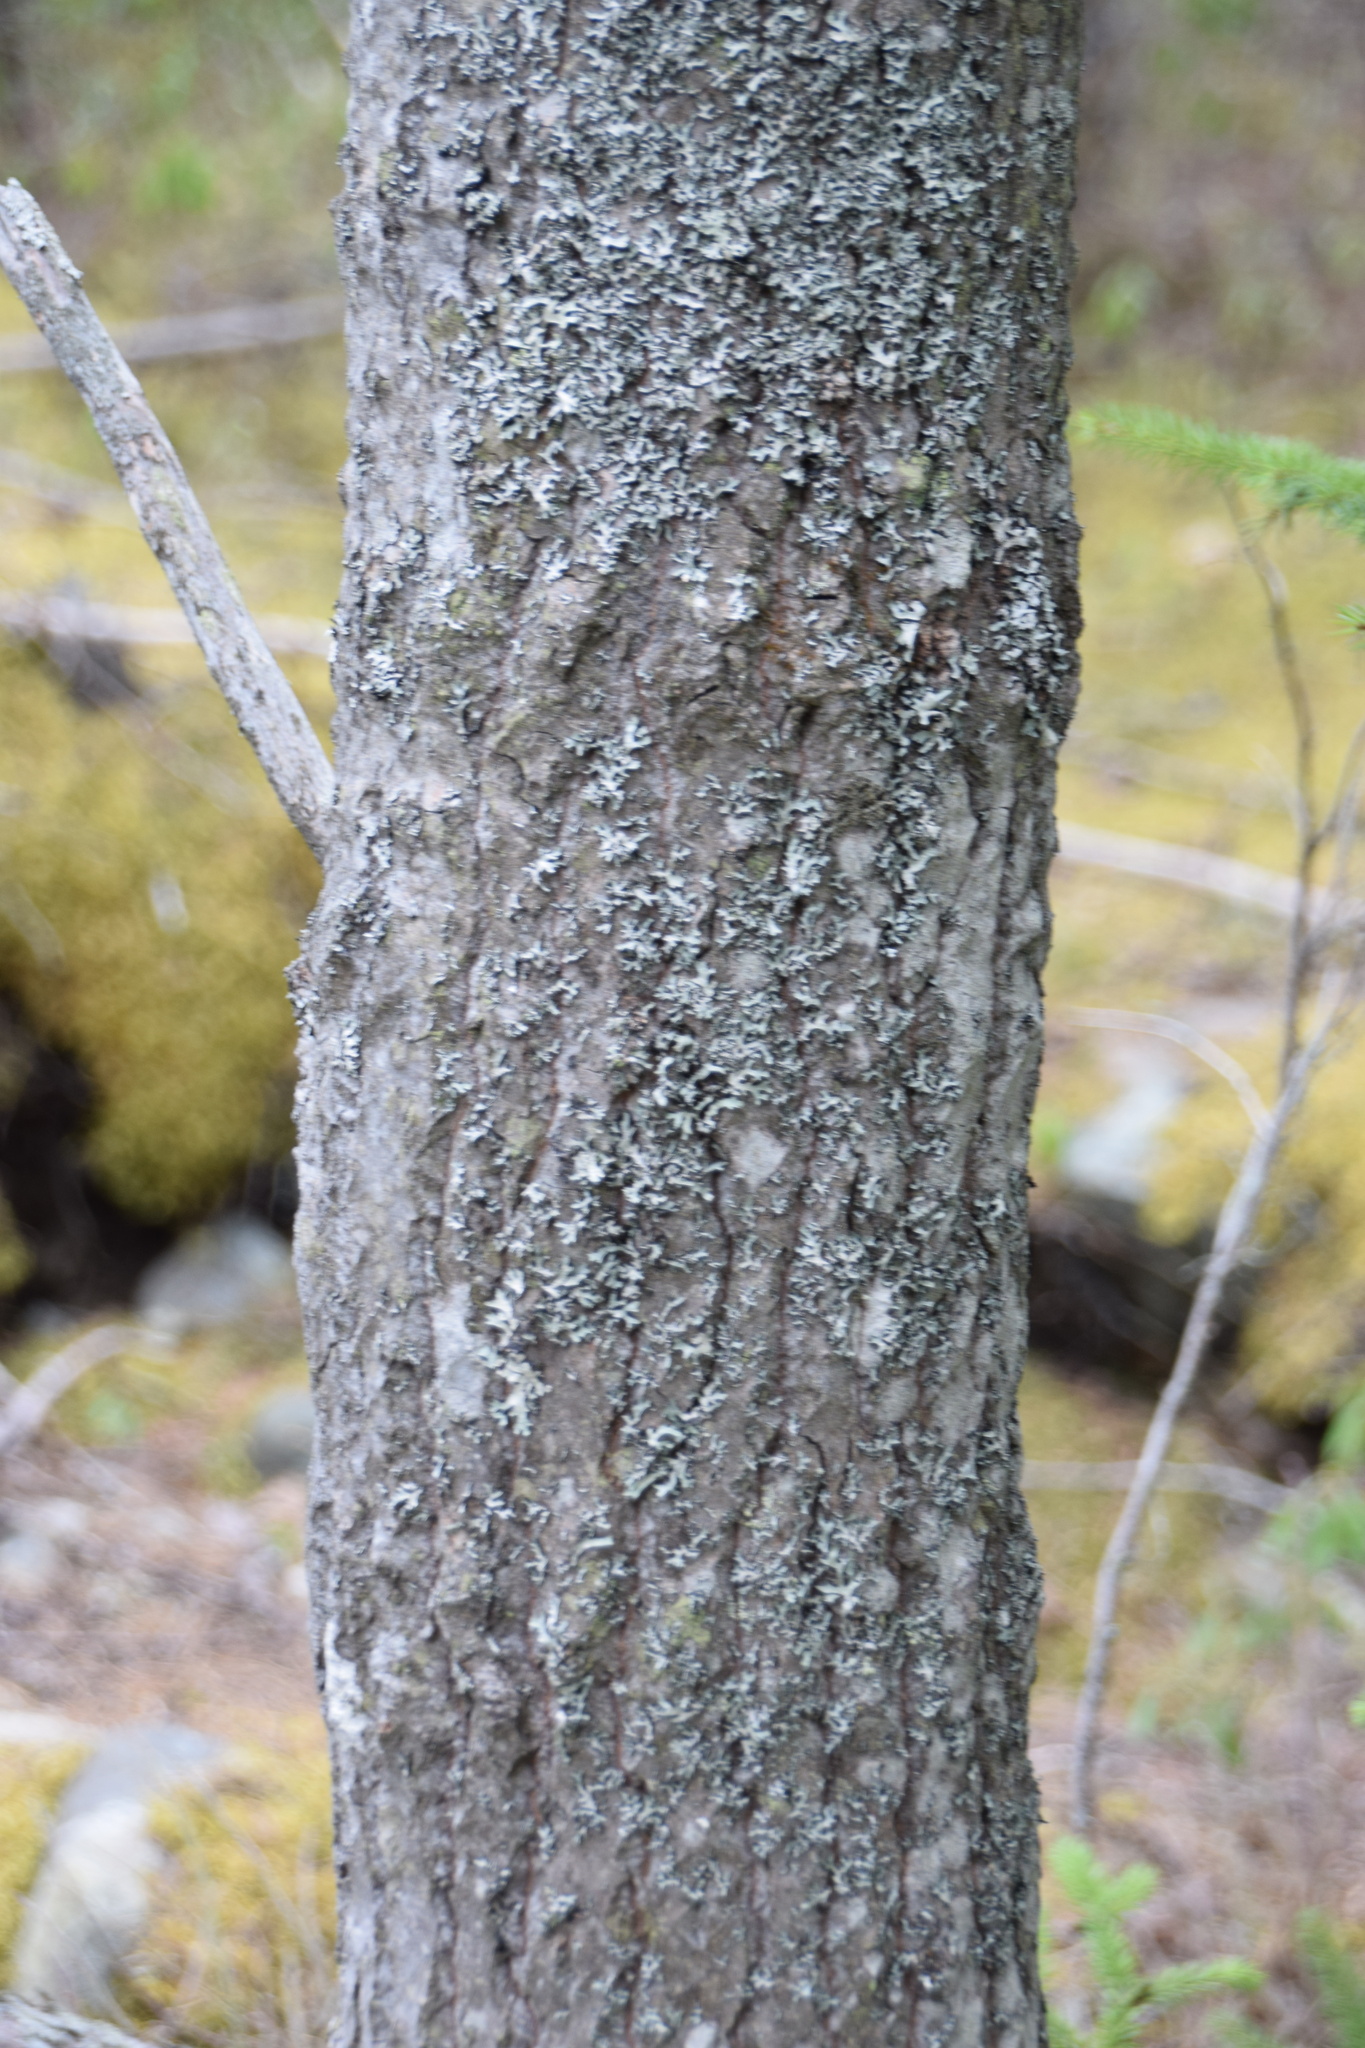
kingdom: Plantae
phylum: Tracheophyta
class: Magnoliopsida
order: Malpighiales
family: Salicaceae
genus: Populus
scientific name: Populus grandidentata
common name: Bigtooth aspen
